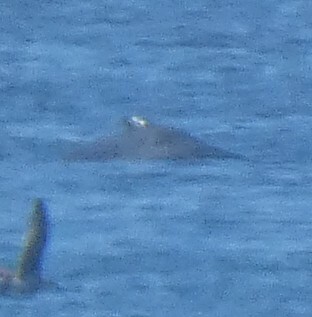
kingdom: Animalia
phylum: Chordata
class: Mammalia
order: Cetacea
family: Delphinidae
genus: Tursiops
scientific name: Tursiops truncatus
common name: Bottlenose dolphin
